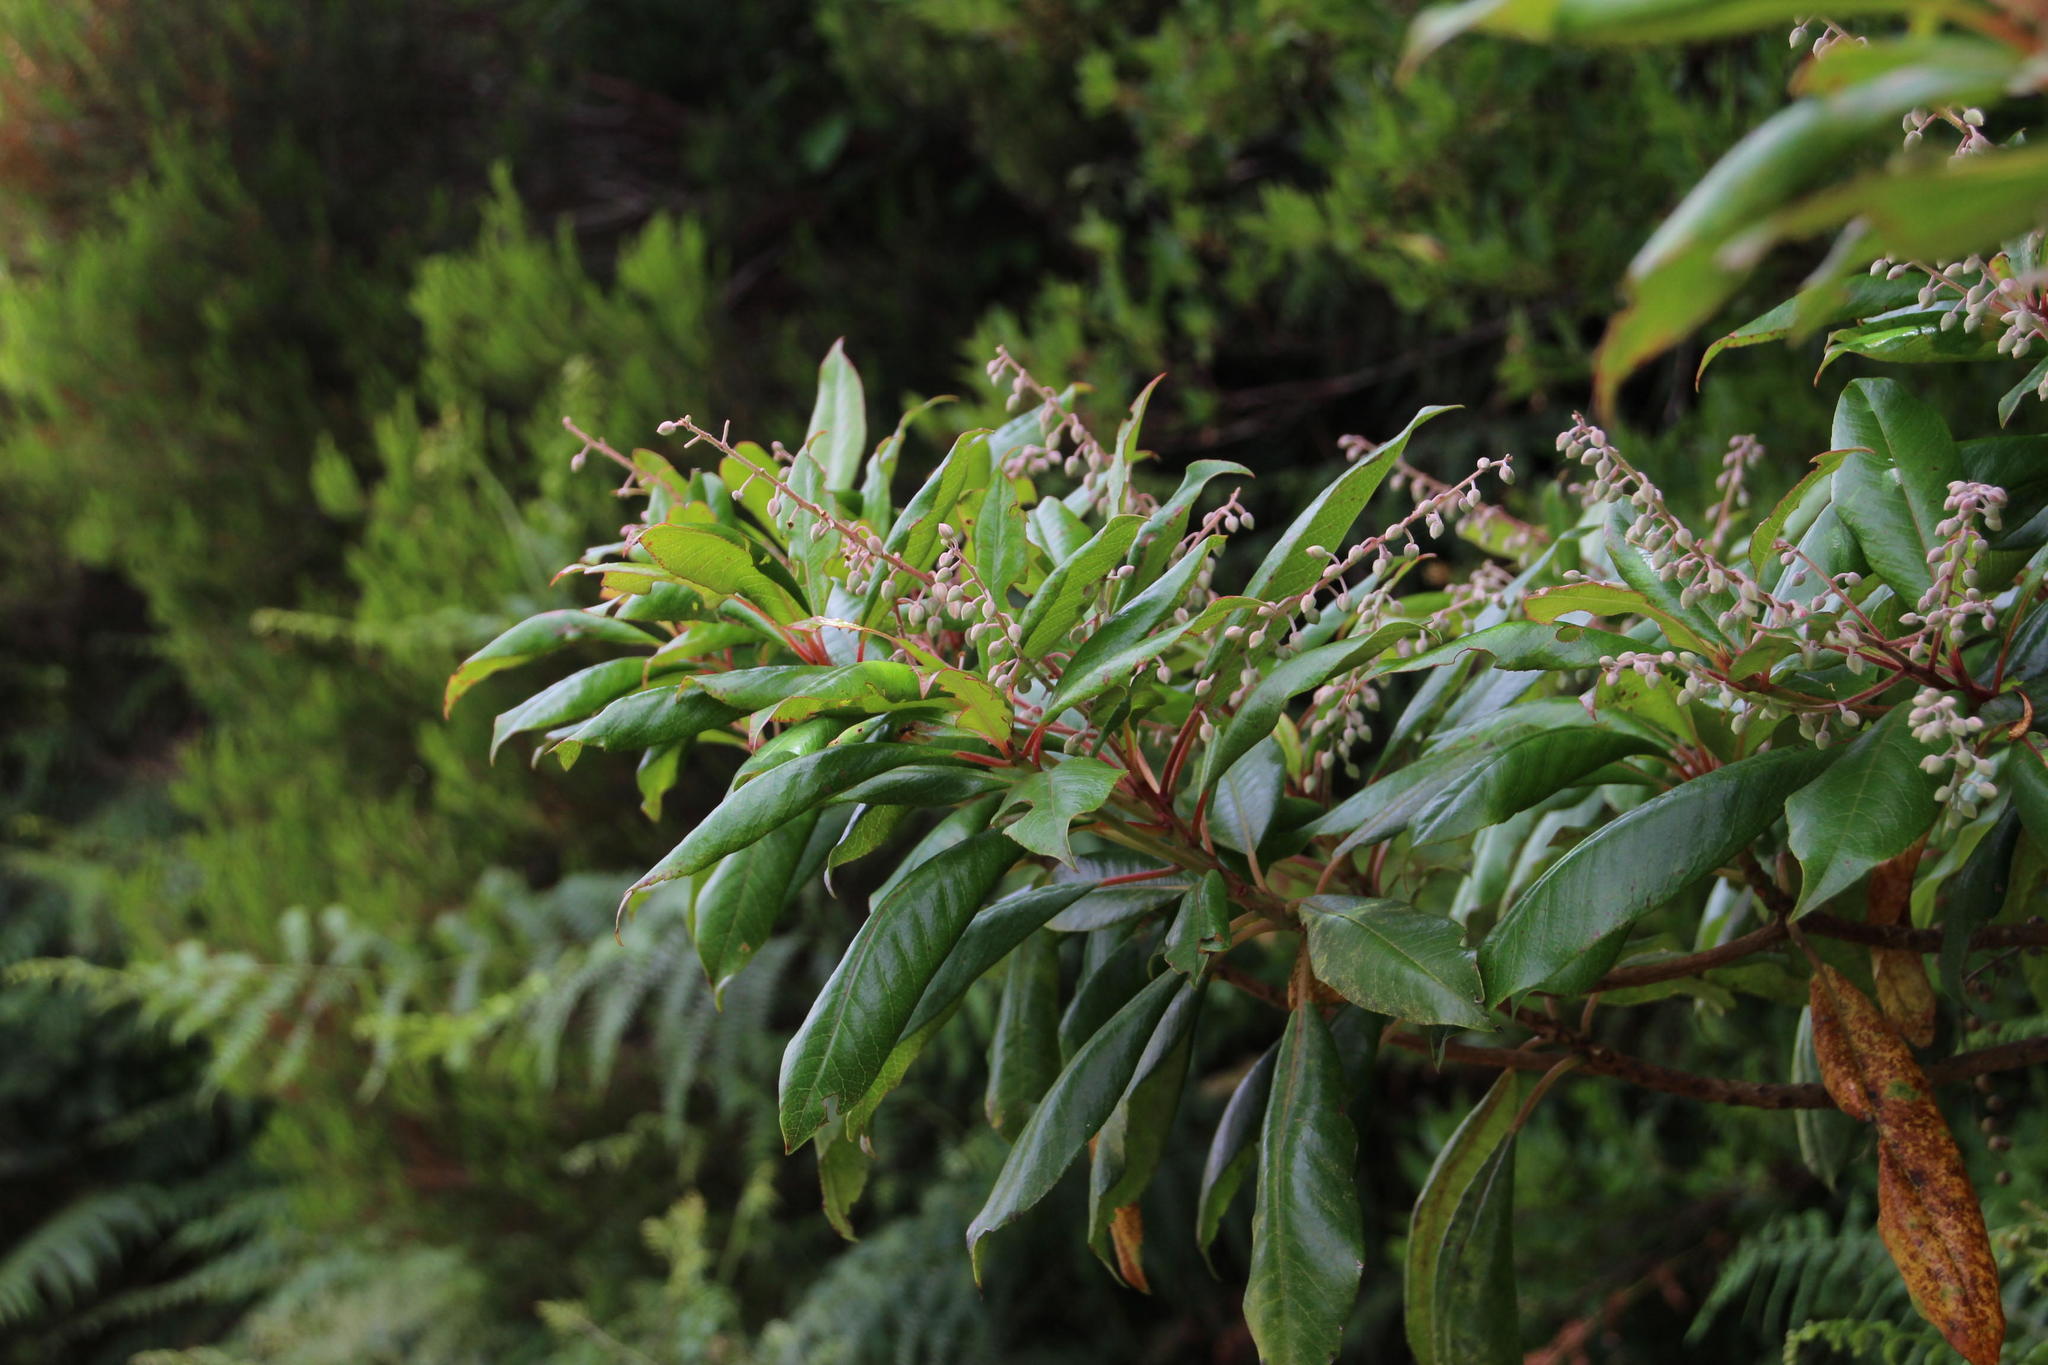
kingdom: Plantae
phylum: Tracheophyta
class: Magnoliopsida
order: Ericales
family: Clethraceae
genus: Clethra
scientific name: Clethra arborea
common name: Lily-of-the-valley-tree
